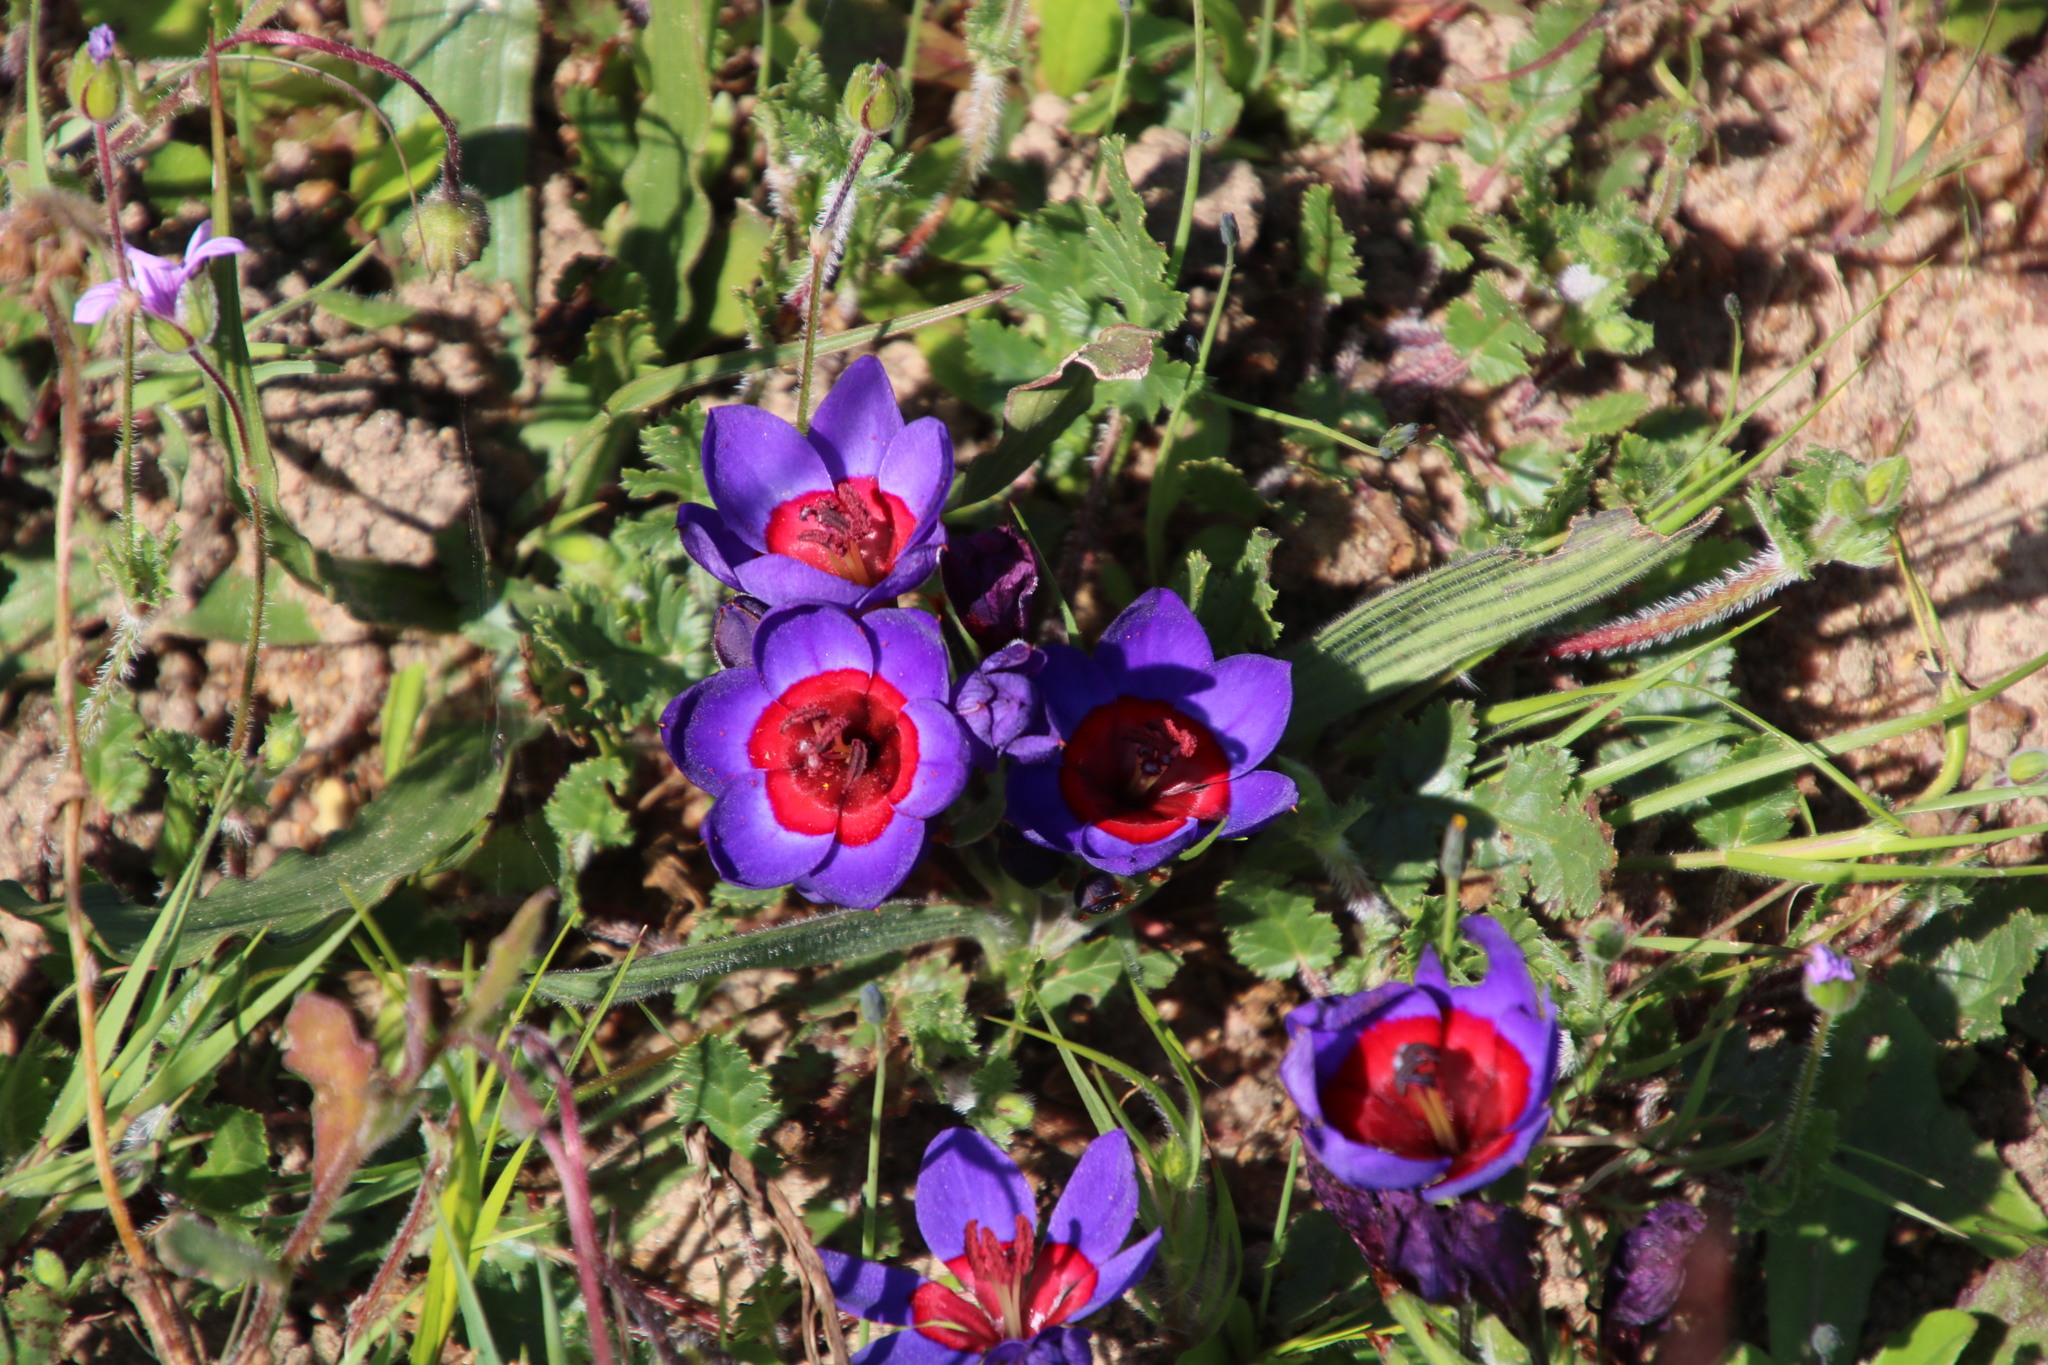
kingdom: Plantae
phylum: Tracheophyta
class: Liliopsida
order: Asparagales
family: Iridaceae
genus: Babiana
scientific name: Babiana rubrocyanea
